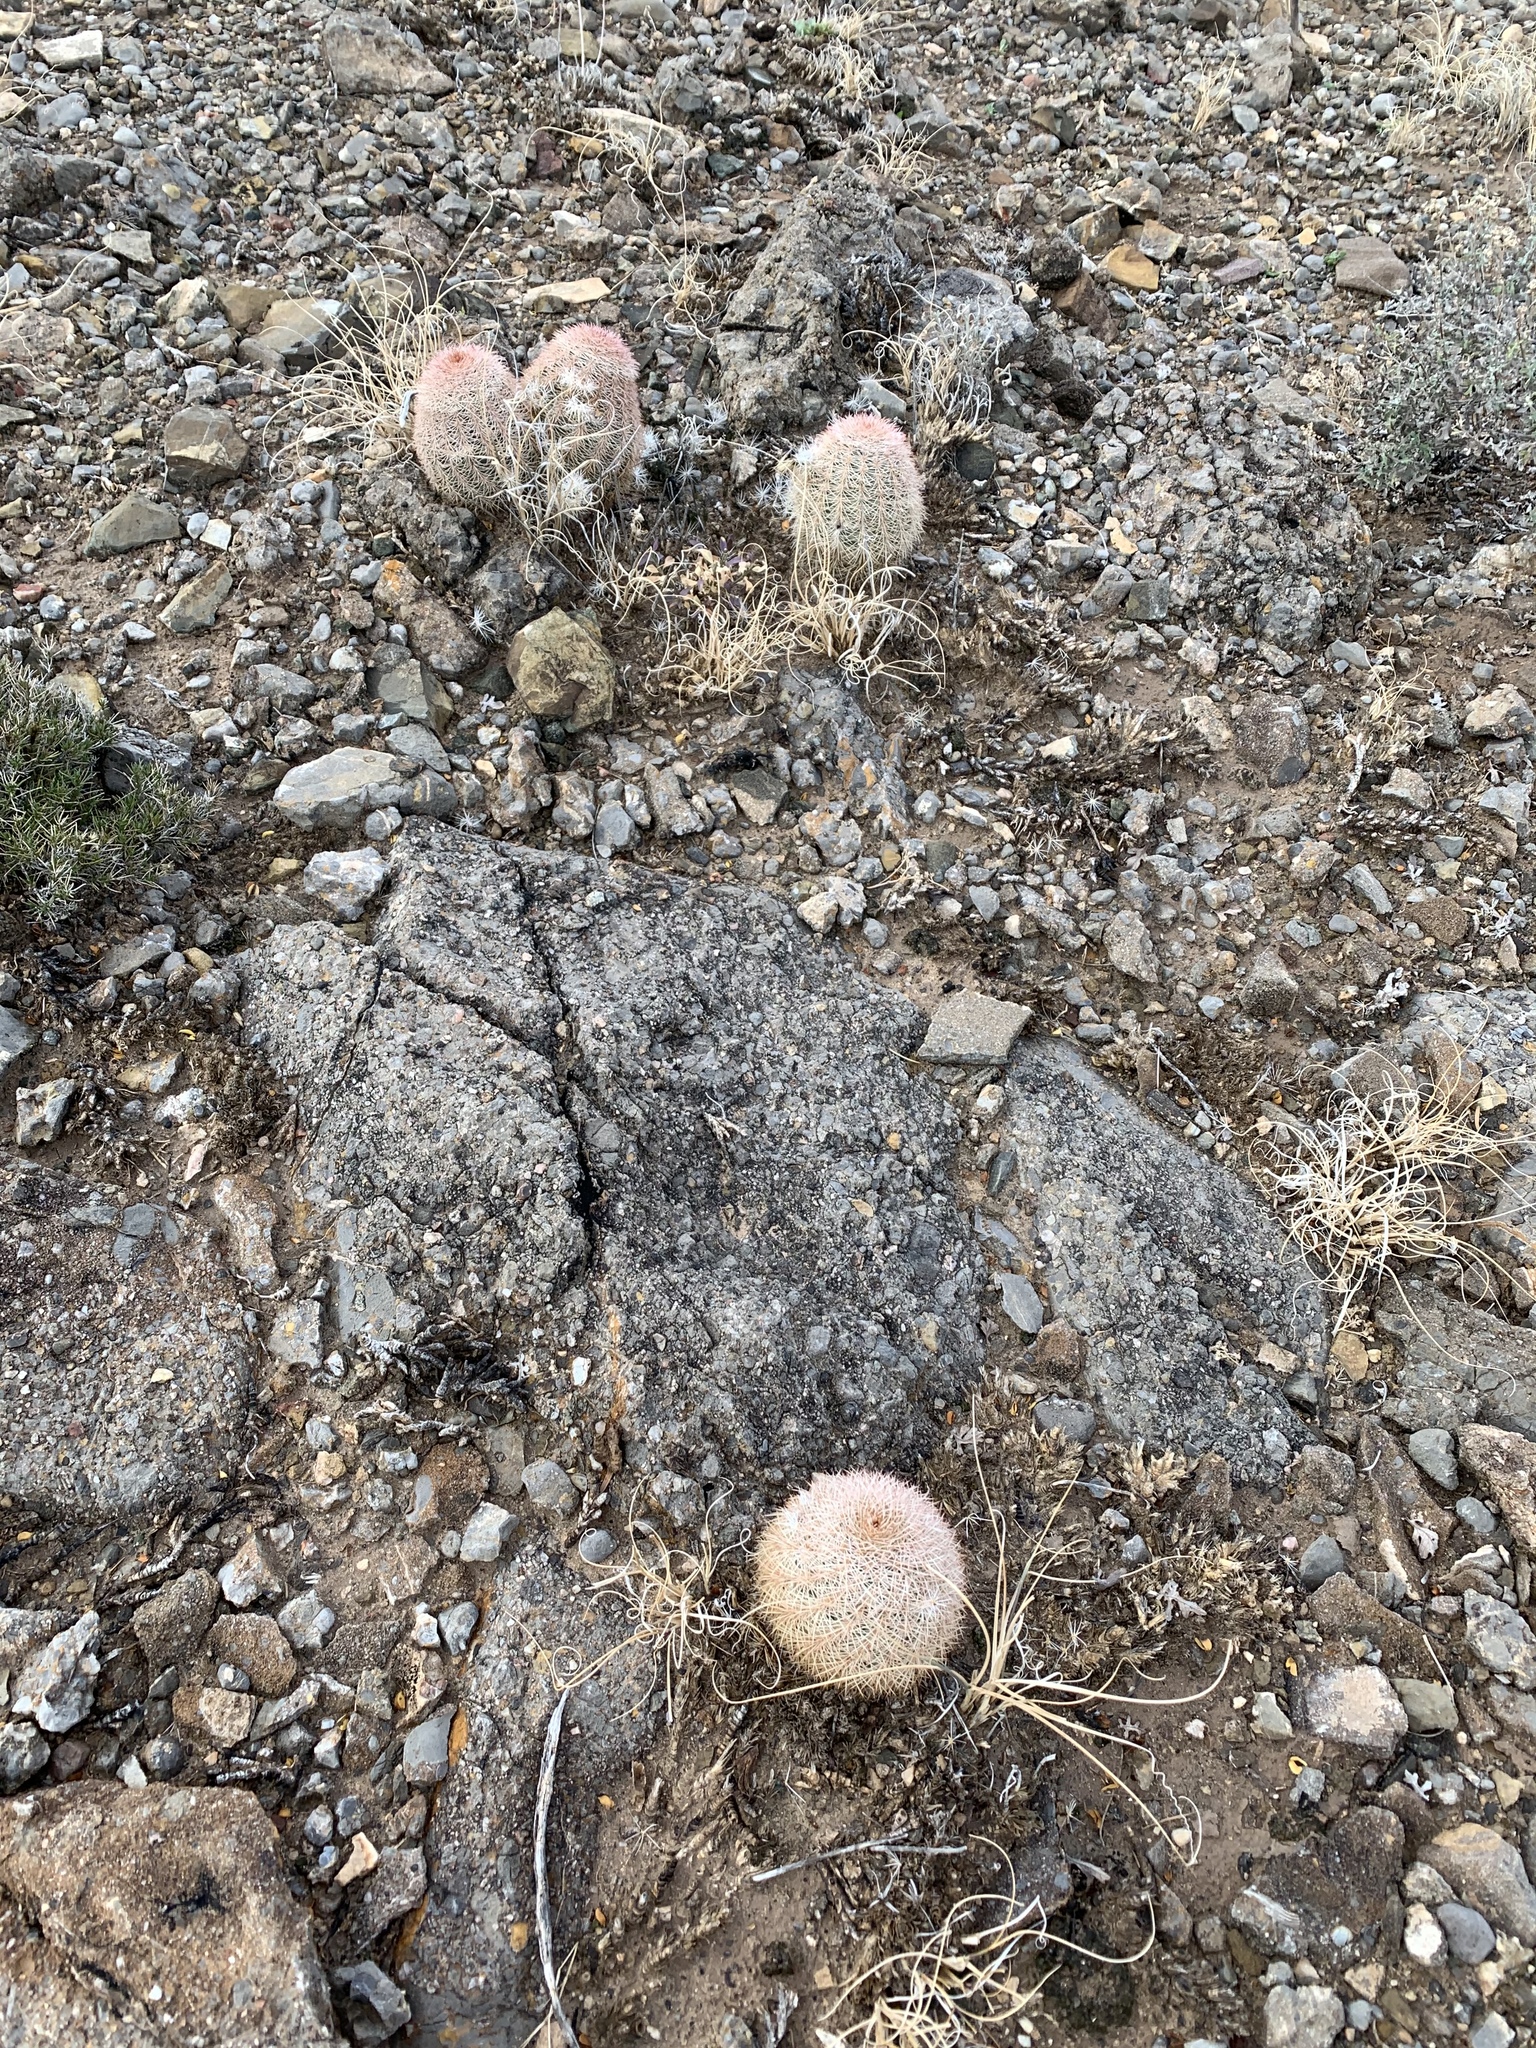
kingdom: Plantae
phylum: Tracheophyta
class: Magnoliopsida
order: Caryophyllales
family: Cactaceae
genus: Echinocereus
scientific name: Echinocereus dasyacanthus
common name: Spiny hedgehog cactus
